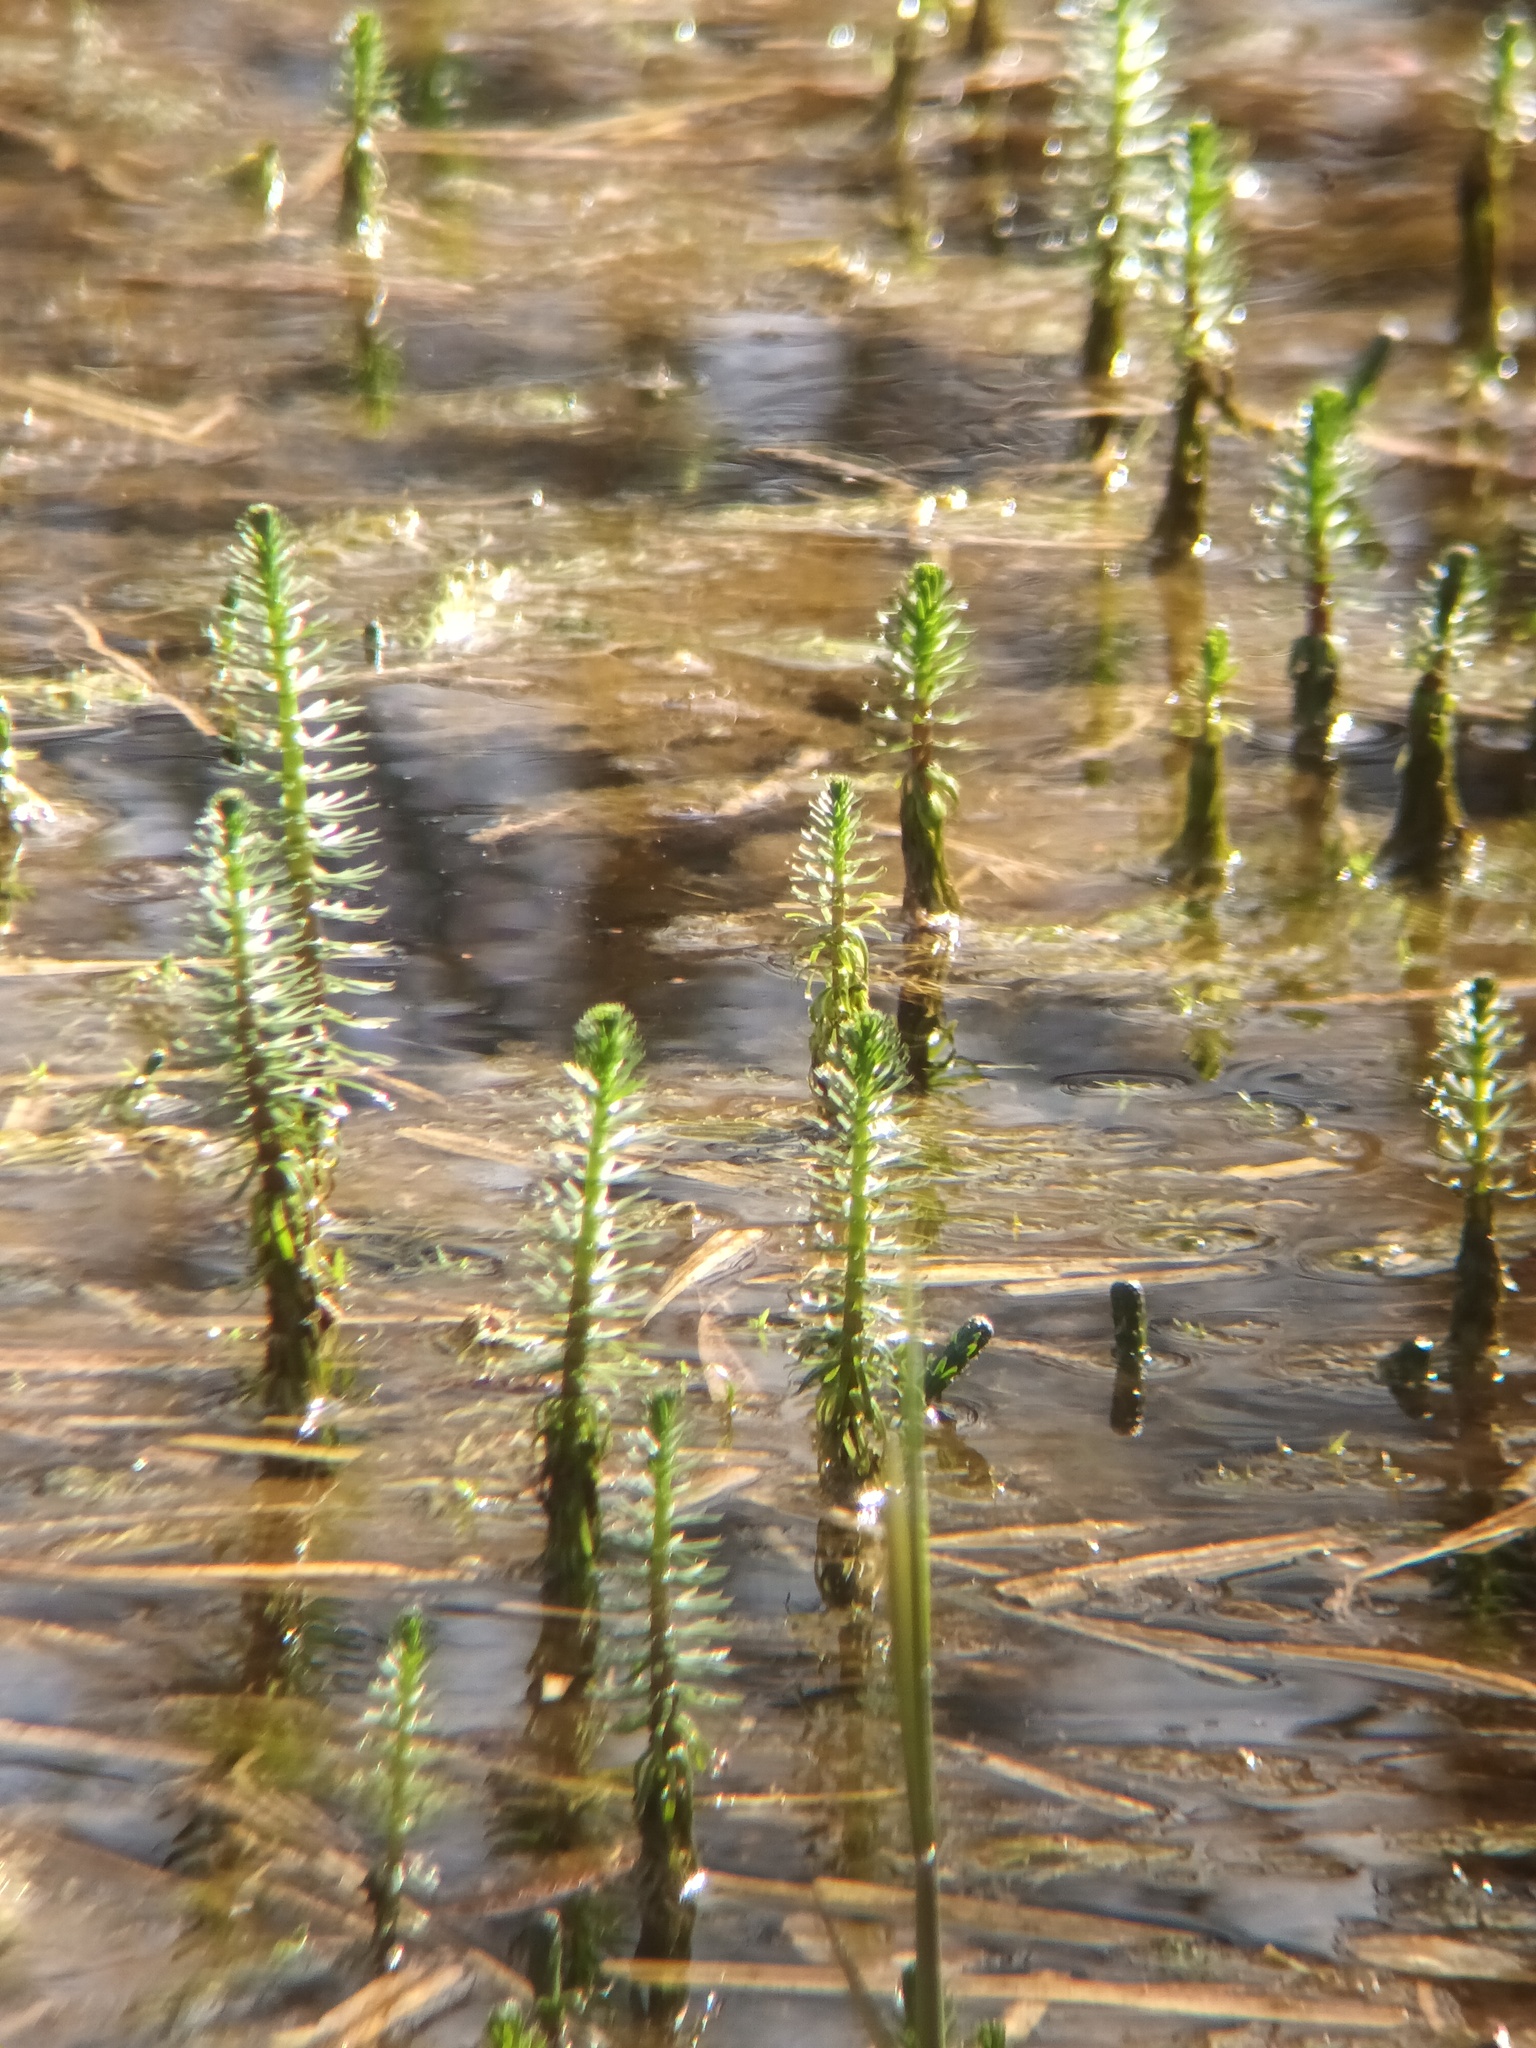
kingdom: Plantae
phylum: Tracheophyta
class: Magnoliopsida
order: Lamiales
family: Plantaginaceae
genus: Hippuris
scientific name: Hippuris vulgaris
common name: Mare's-tail
